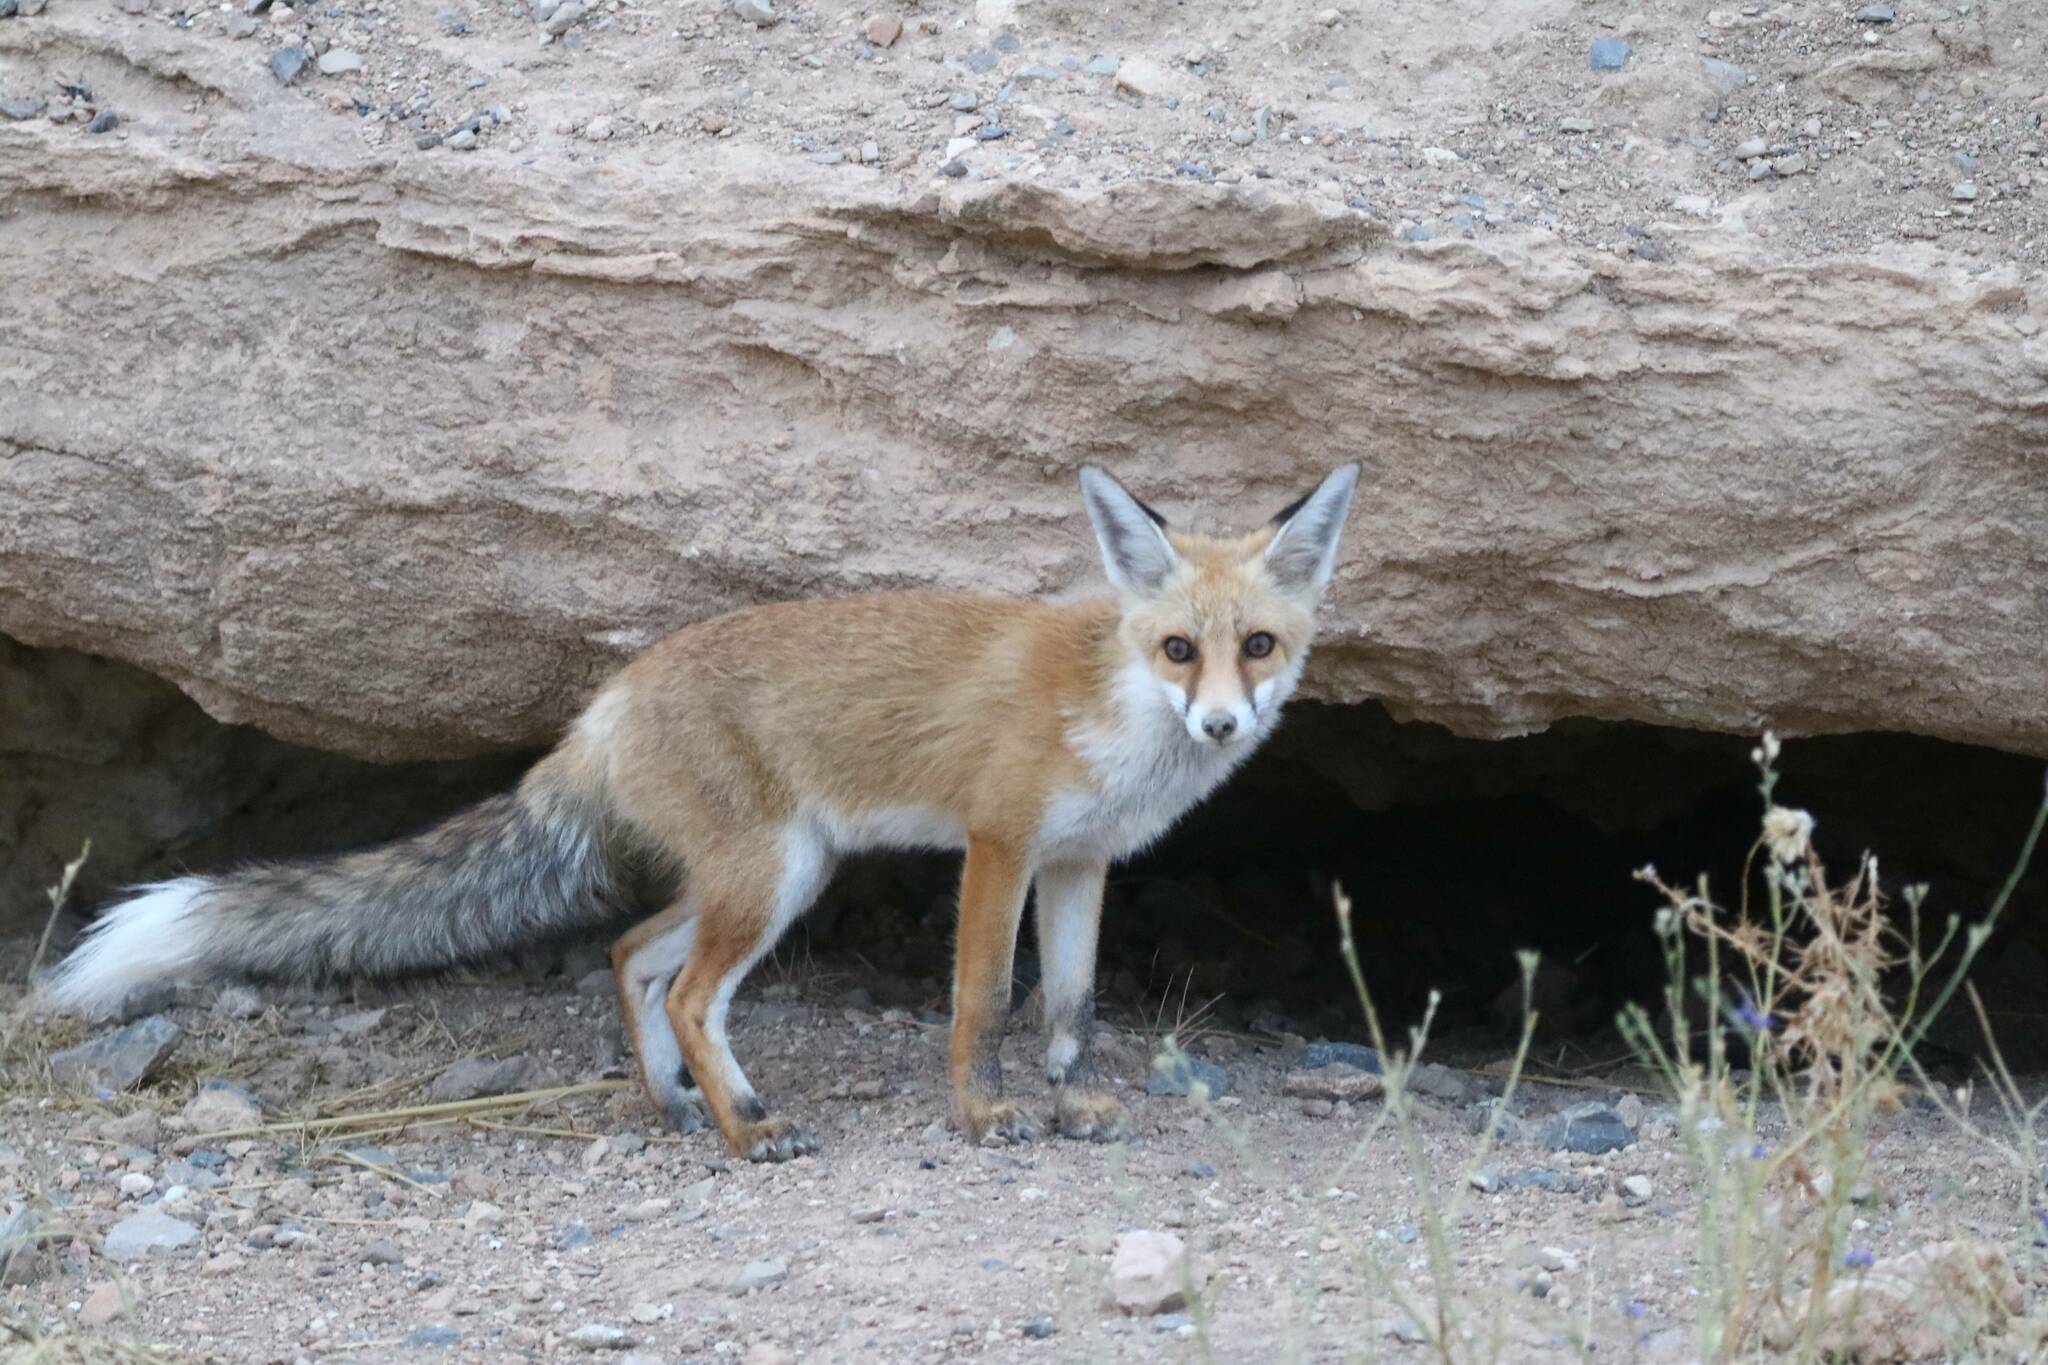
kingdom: Animalia
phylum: Chordata
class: Mammalia
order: Carnivora
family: Canidae
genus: Vulpes
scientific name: Vulpes vulpes
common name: Red fox
